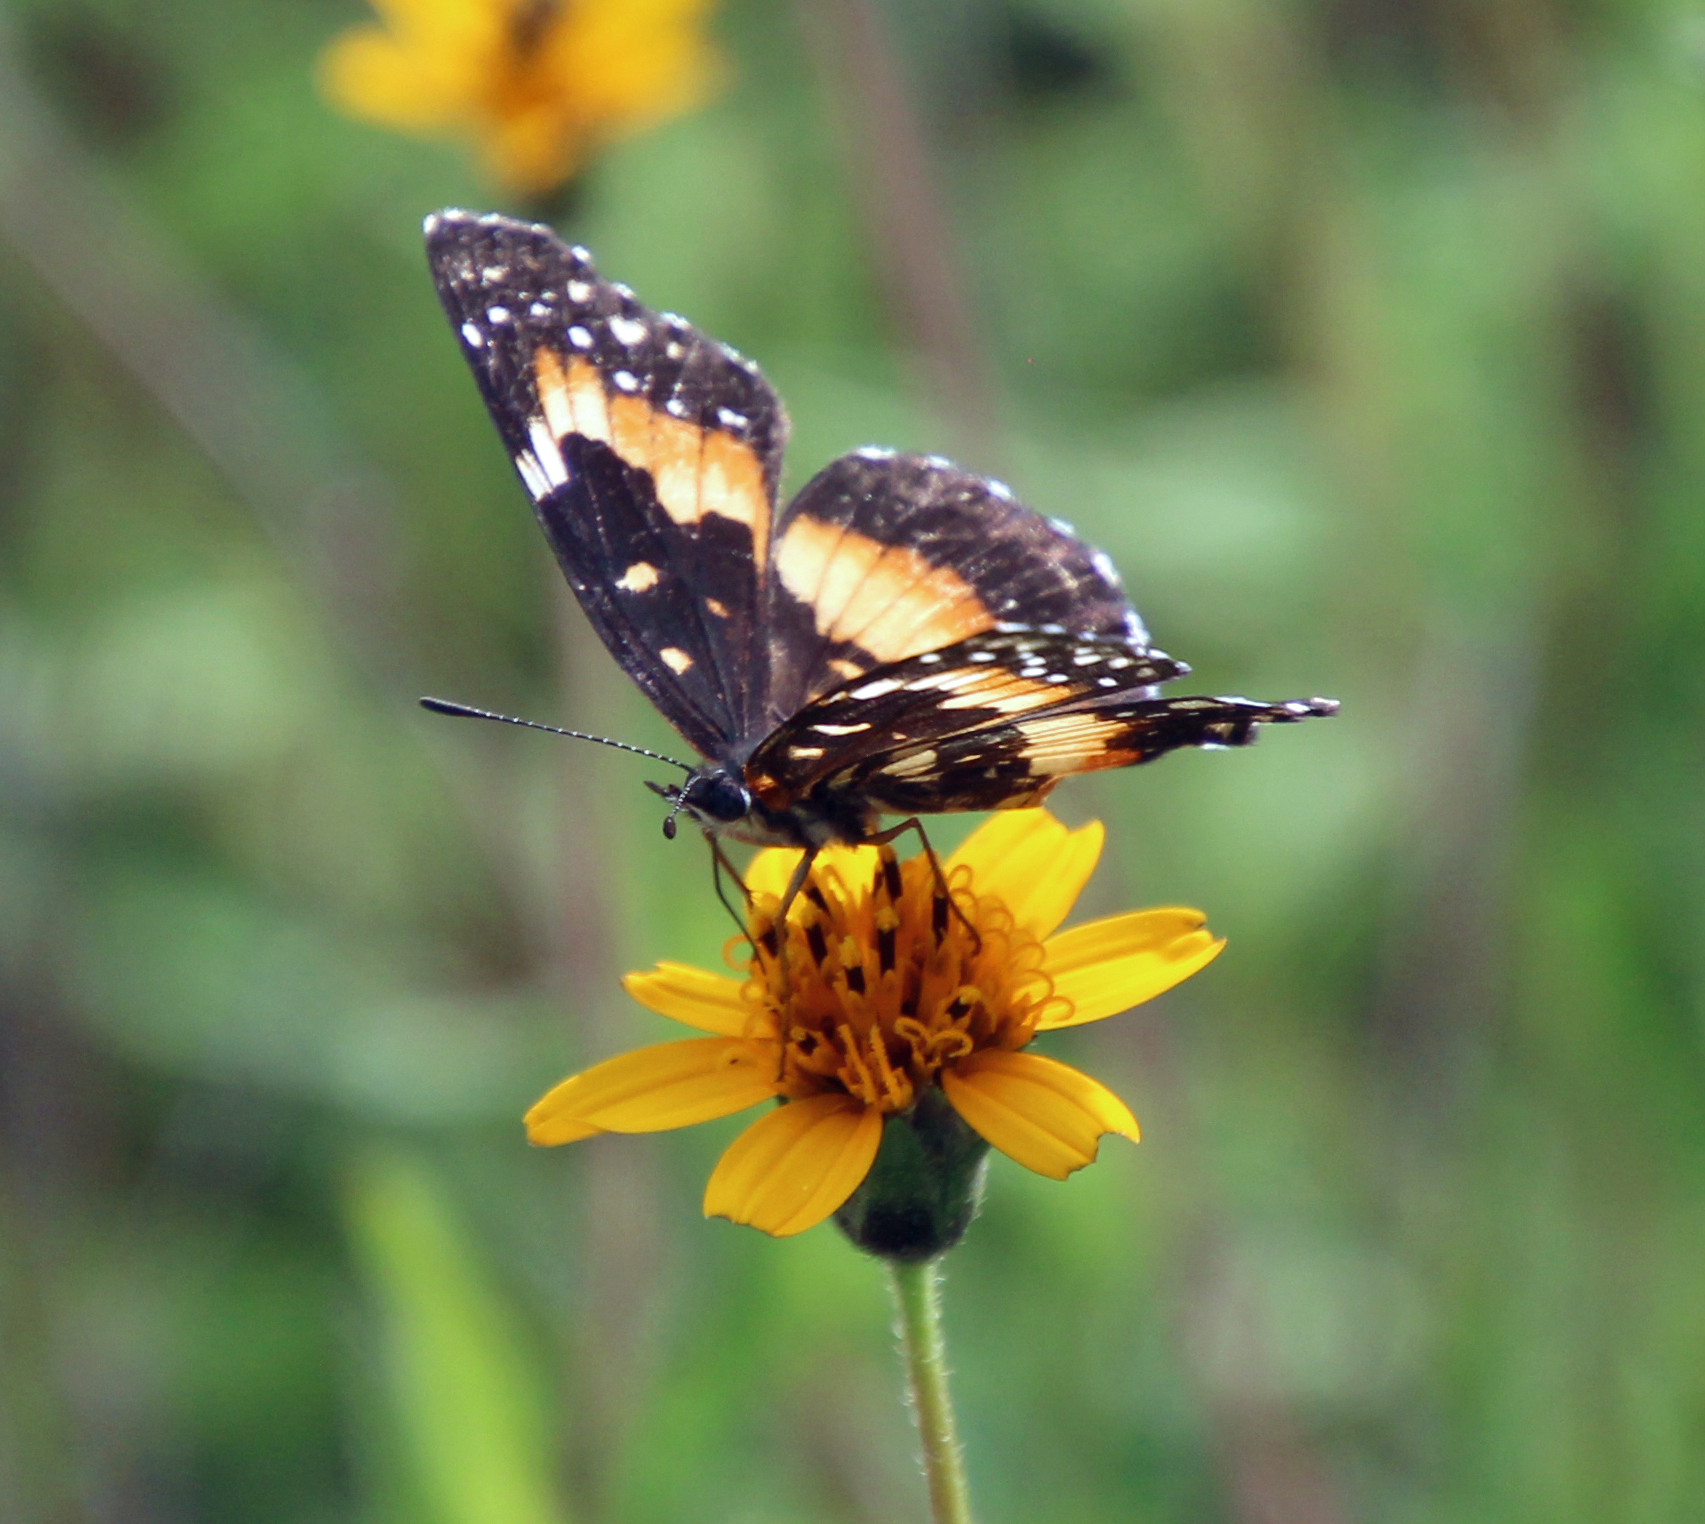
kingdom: Animalia
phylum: Arthropoda
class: Insecta
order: Lepidoptera
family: Nymphalidae
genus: Chlosyne
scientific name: Chlosyne lacinia
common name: Bordered patch
